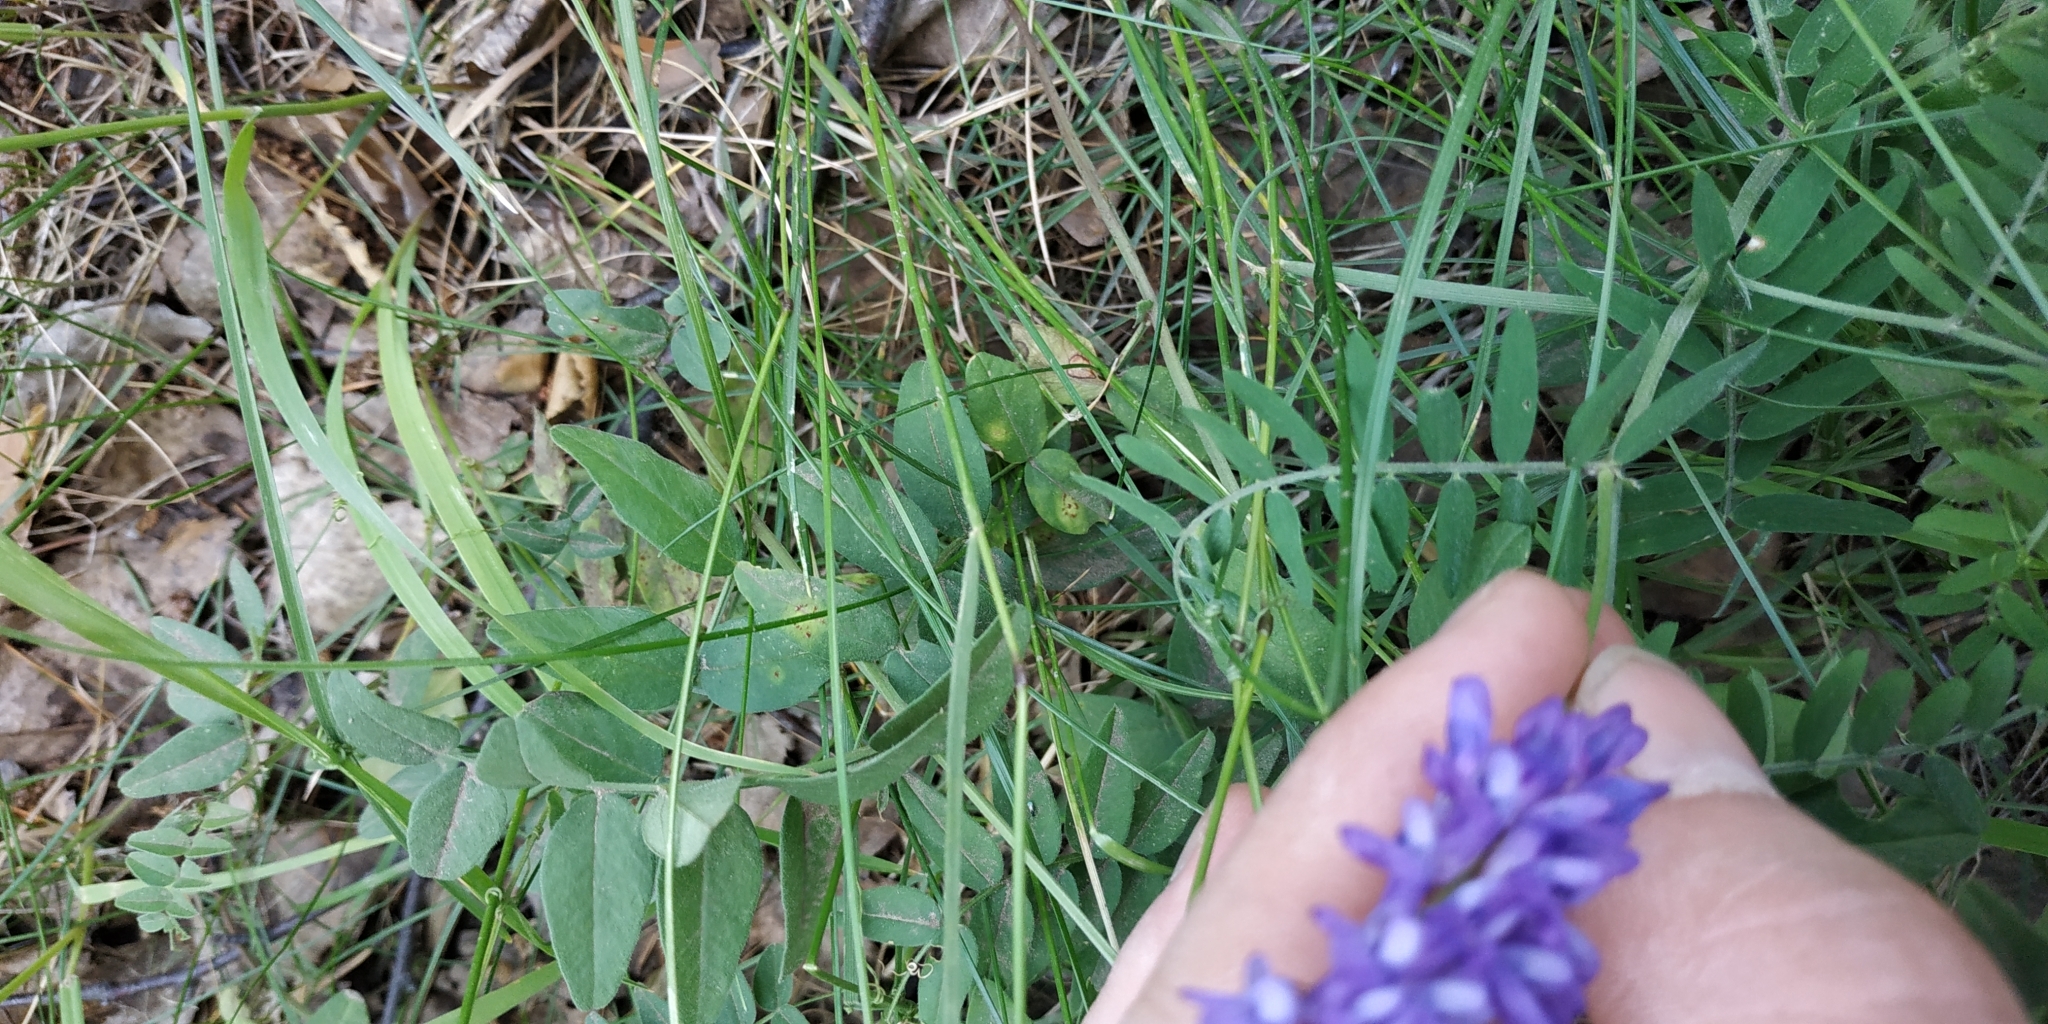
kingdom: Plantae
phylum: Tracheophyta
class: Magnoliopsida
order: Fabales
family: Fabaceae
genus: Vicia
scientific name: Vicia cracca
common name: Bird vetch
